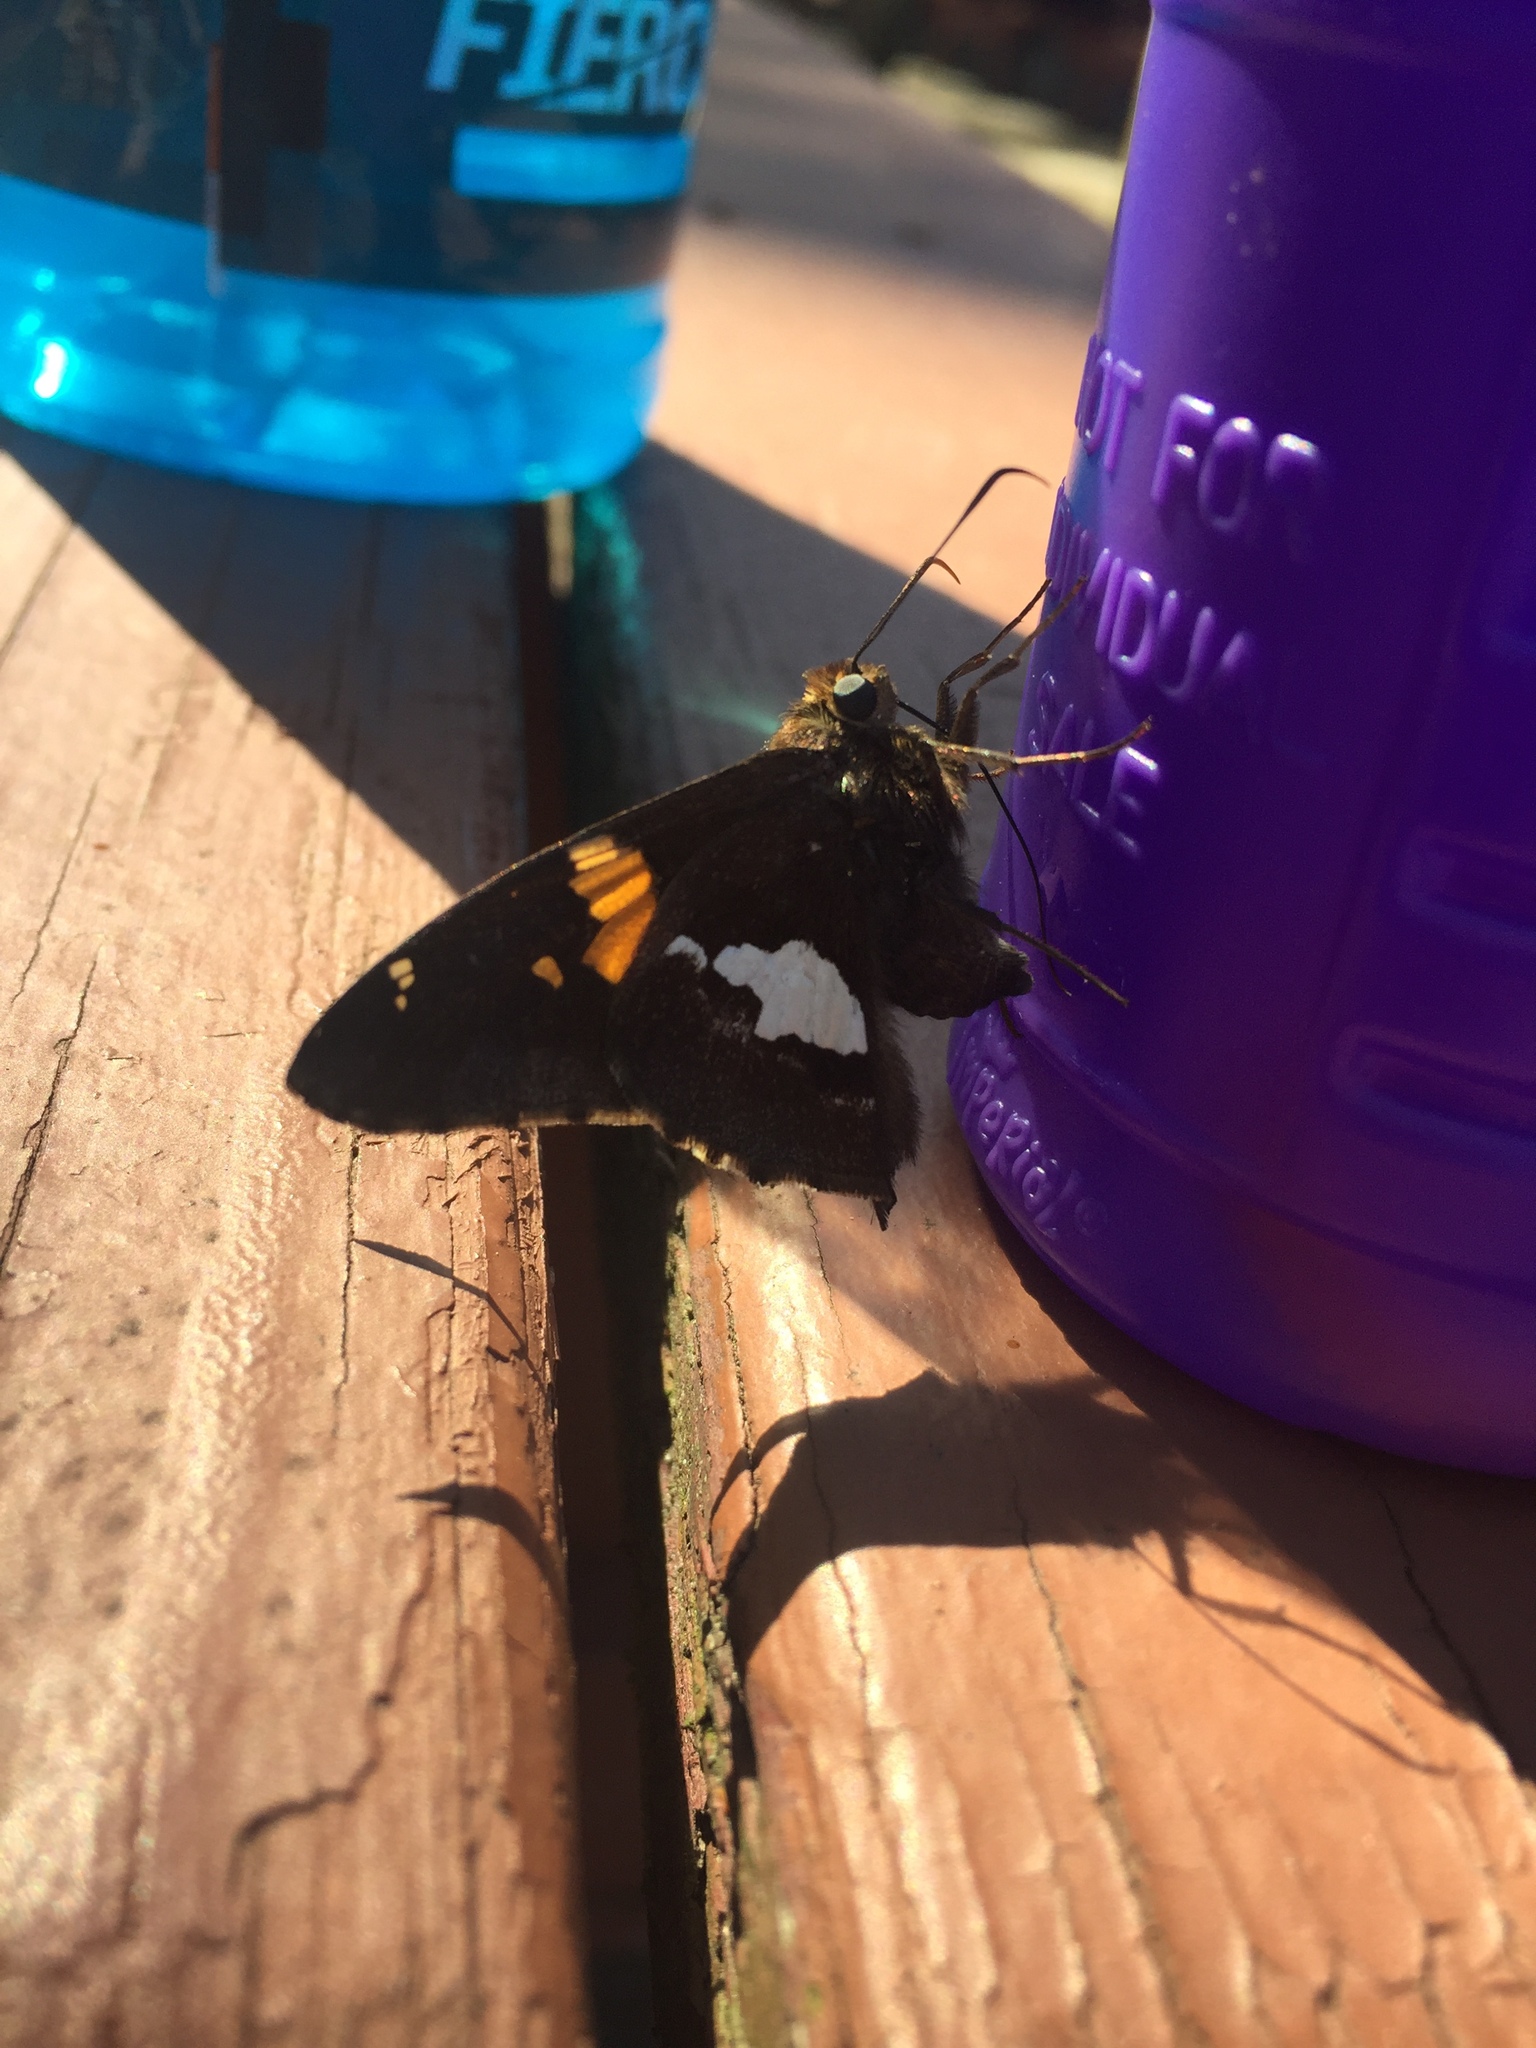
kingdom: Animalia
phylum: Arthropoda
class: Insecta
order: Lepidoptera
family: Hesperiidae
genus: Epargyreus
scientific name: Epargyreus clarus
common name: Silver-spotted skipper
